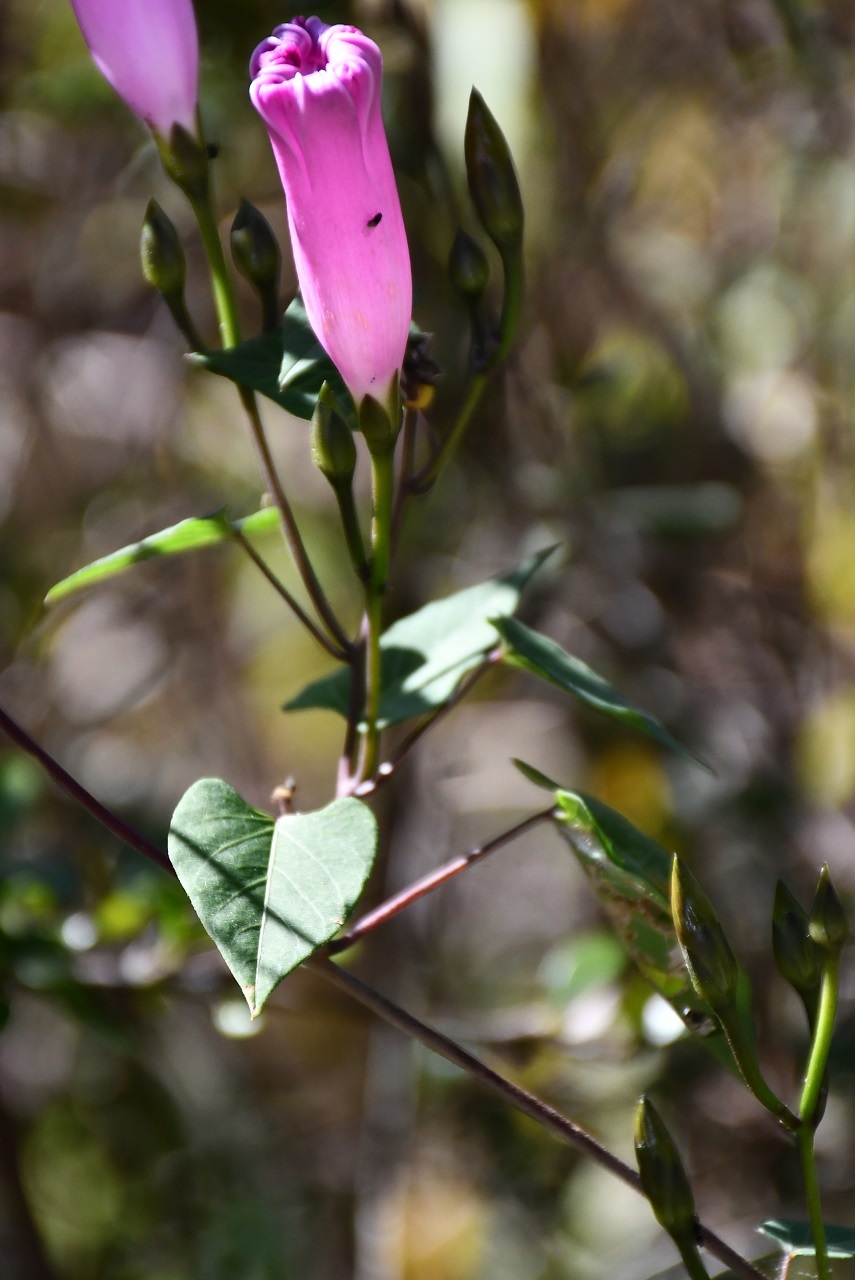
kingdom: Plantae
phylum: Tracheophyta
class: Magnoliopsida
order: Solanales
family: Convolvulaceae
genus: Ipomoea
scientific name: Ipomoea orizabensis
